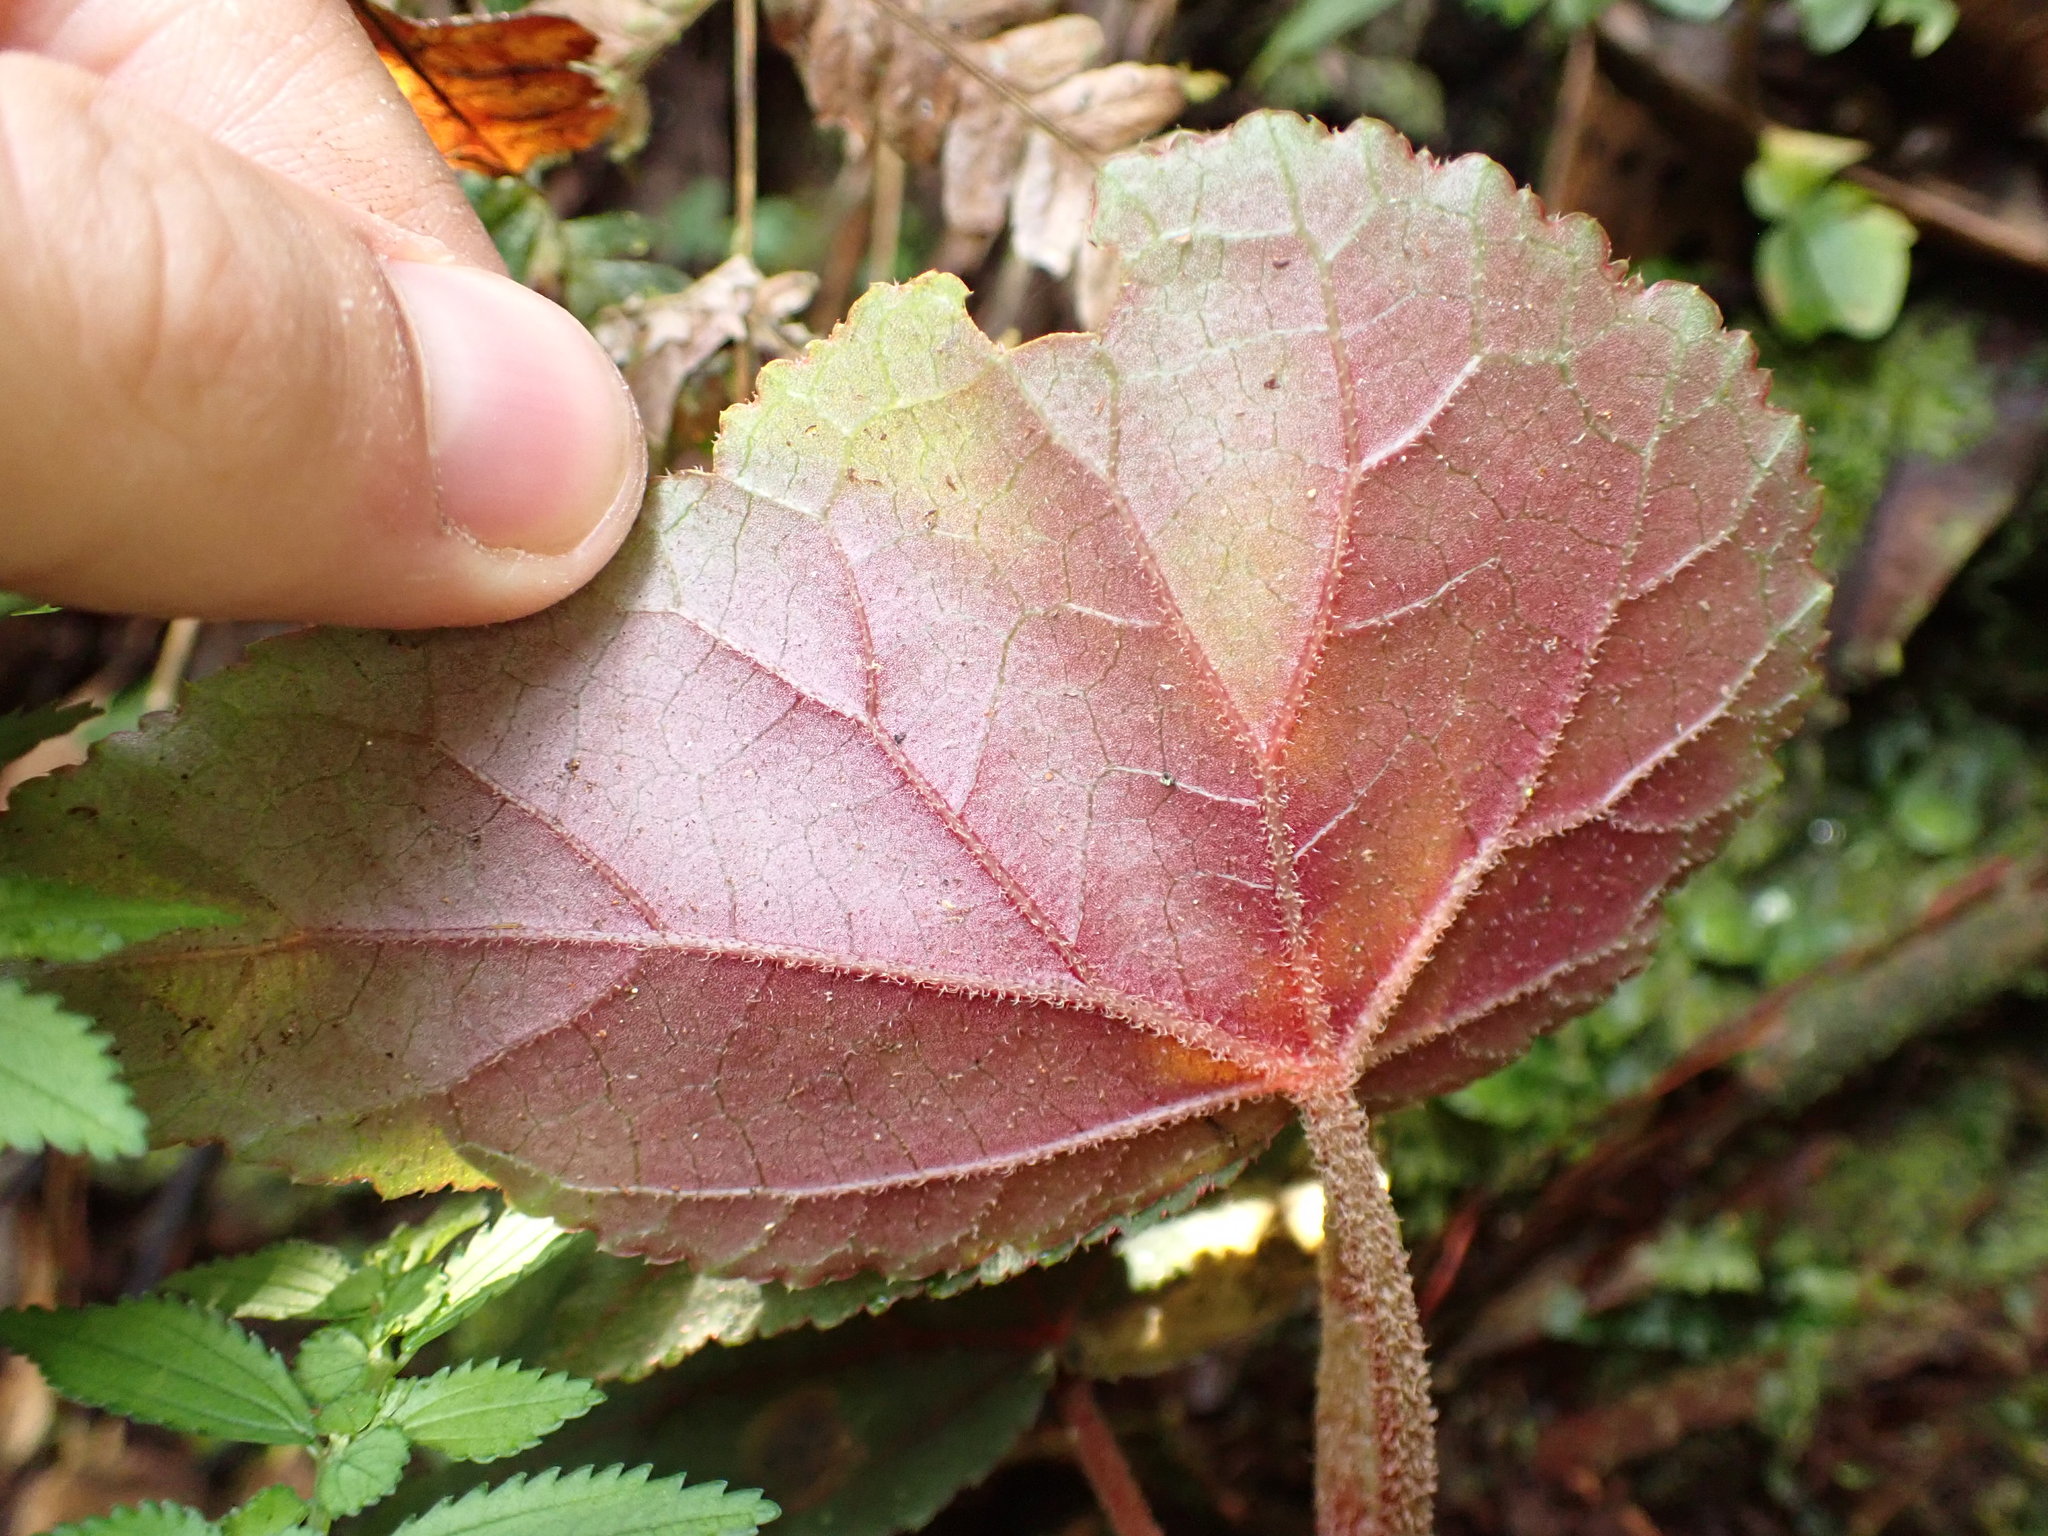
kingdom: Plantae
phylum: Tracheophyta
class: Magnoliopsida
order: Cucurbitales
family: Begoniaceae
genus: Begonia
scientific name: Begonia parviflora
